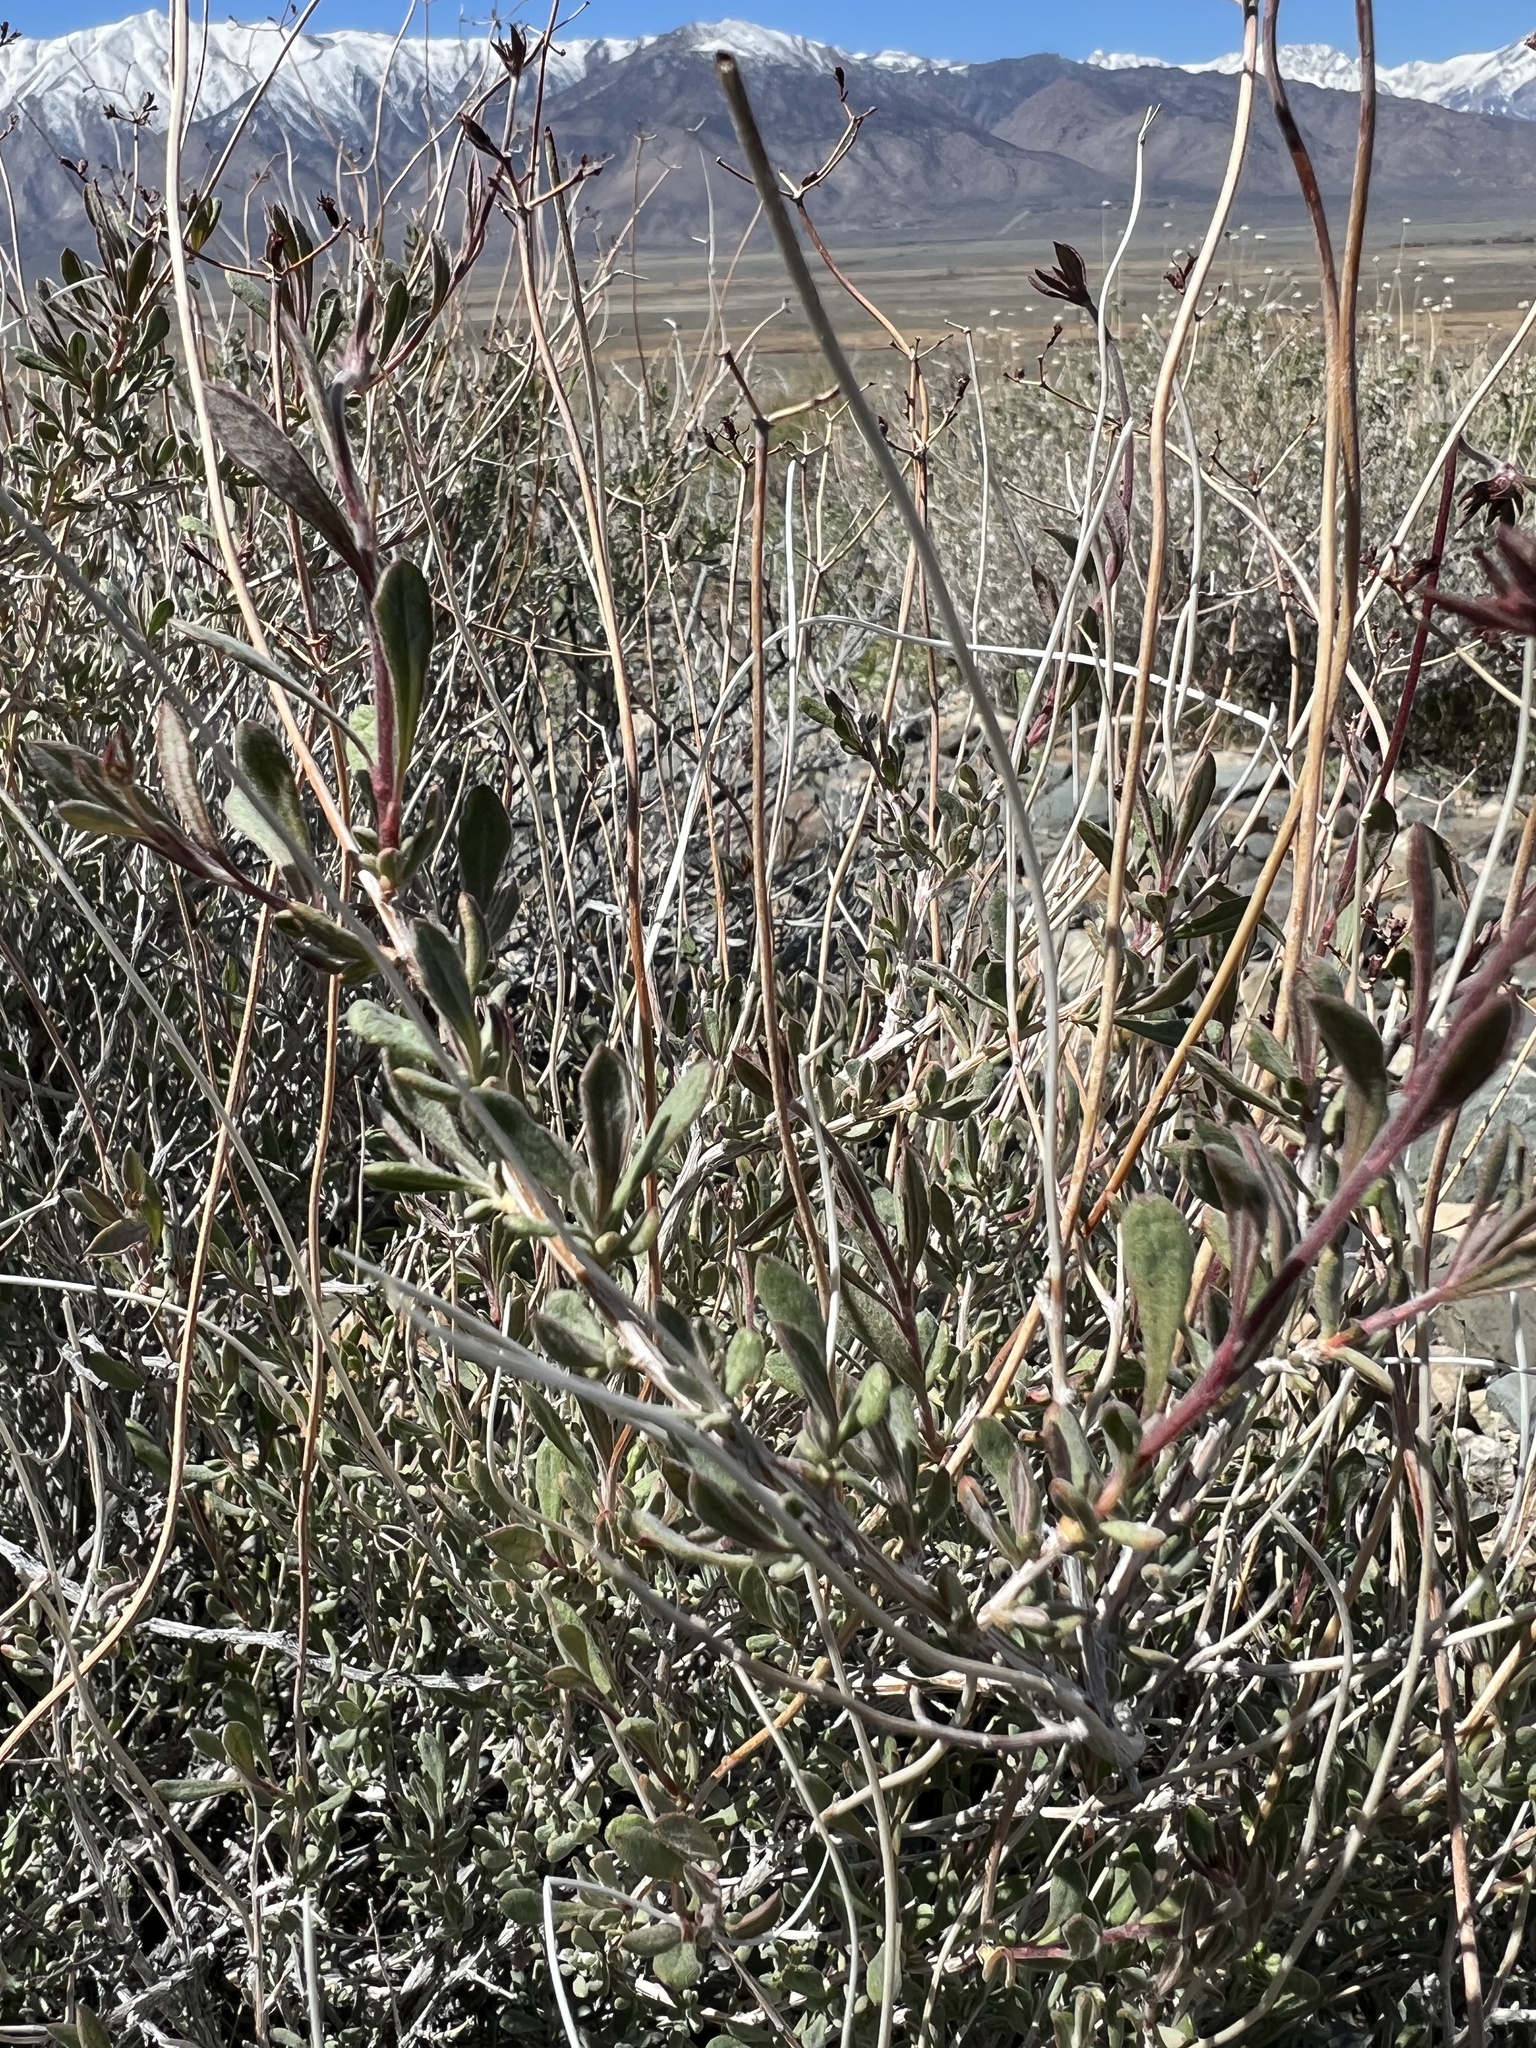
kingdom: Plantae
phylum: Tracheophyta
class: Magnoliopsida
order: Caryophyllales
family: Polygonaceae
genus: Eriogonum
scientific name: Eriogonum fasciculatum
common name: California wild buckwheat
